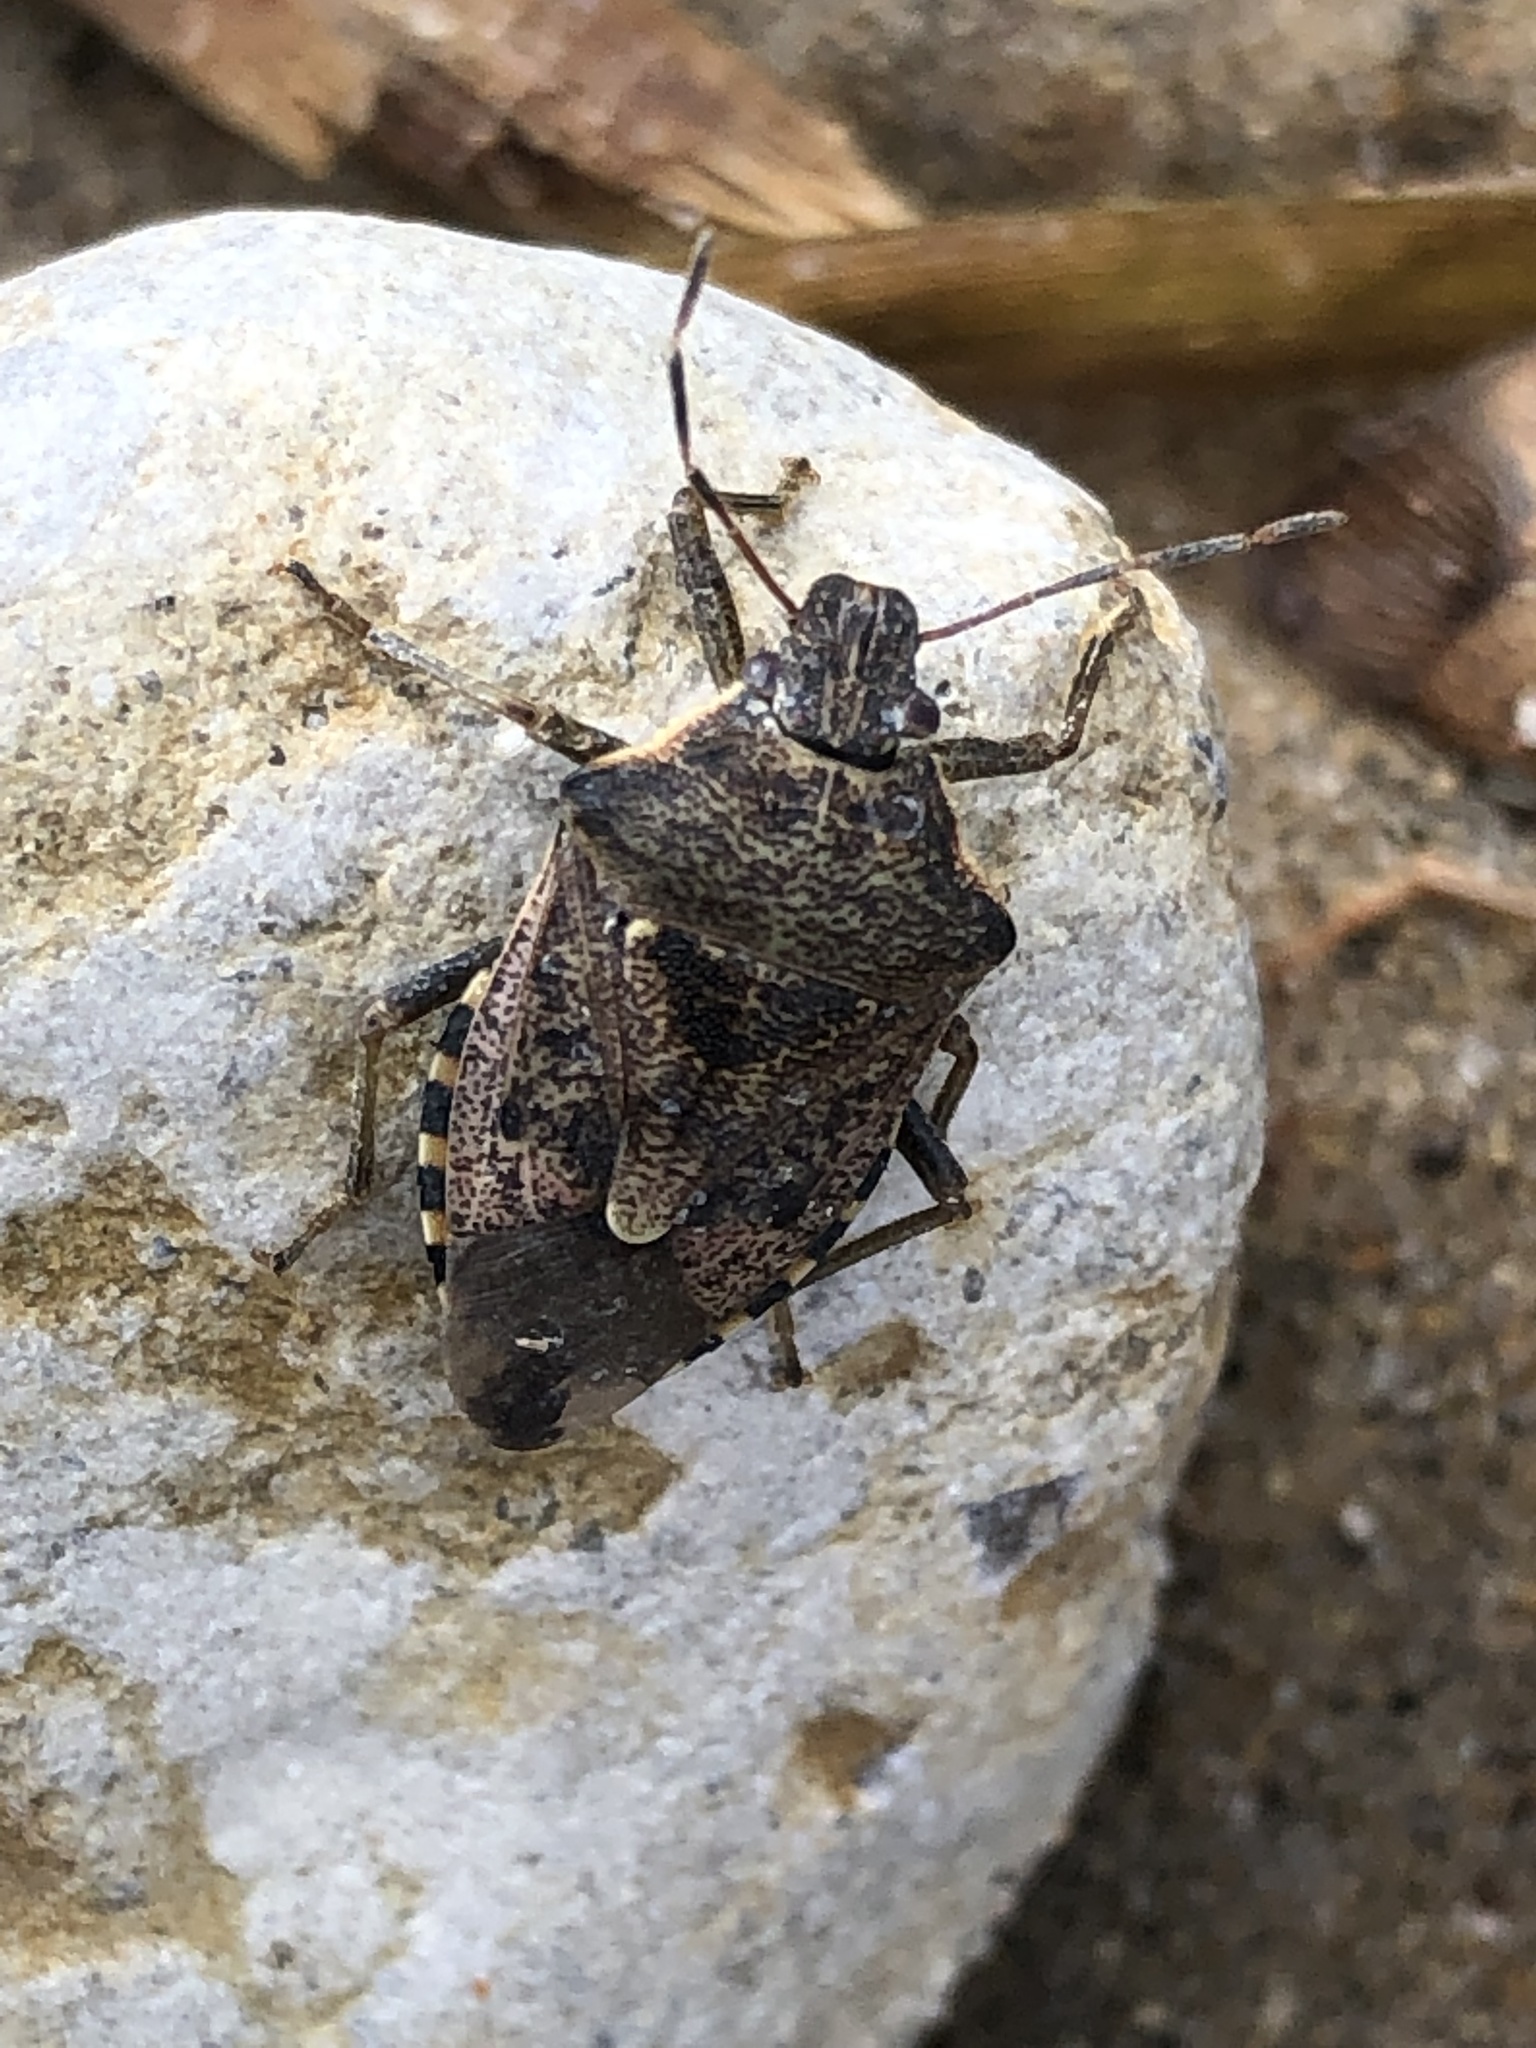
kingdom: Animalia
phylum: Arthropoda
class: Insecta
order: Hemiptera
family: Pentatomidae
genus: Podisus
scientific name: Podisus serieventris
